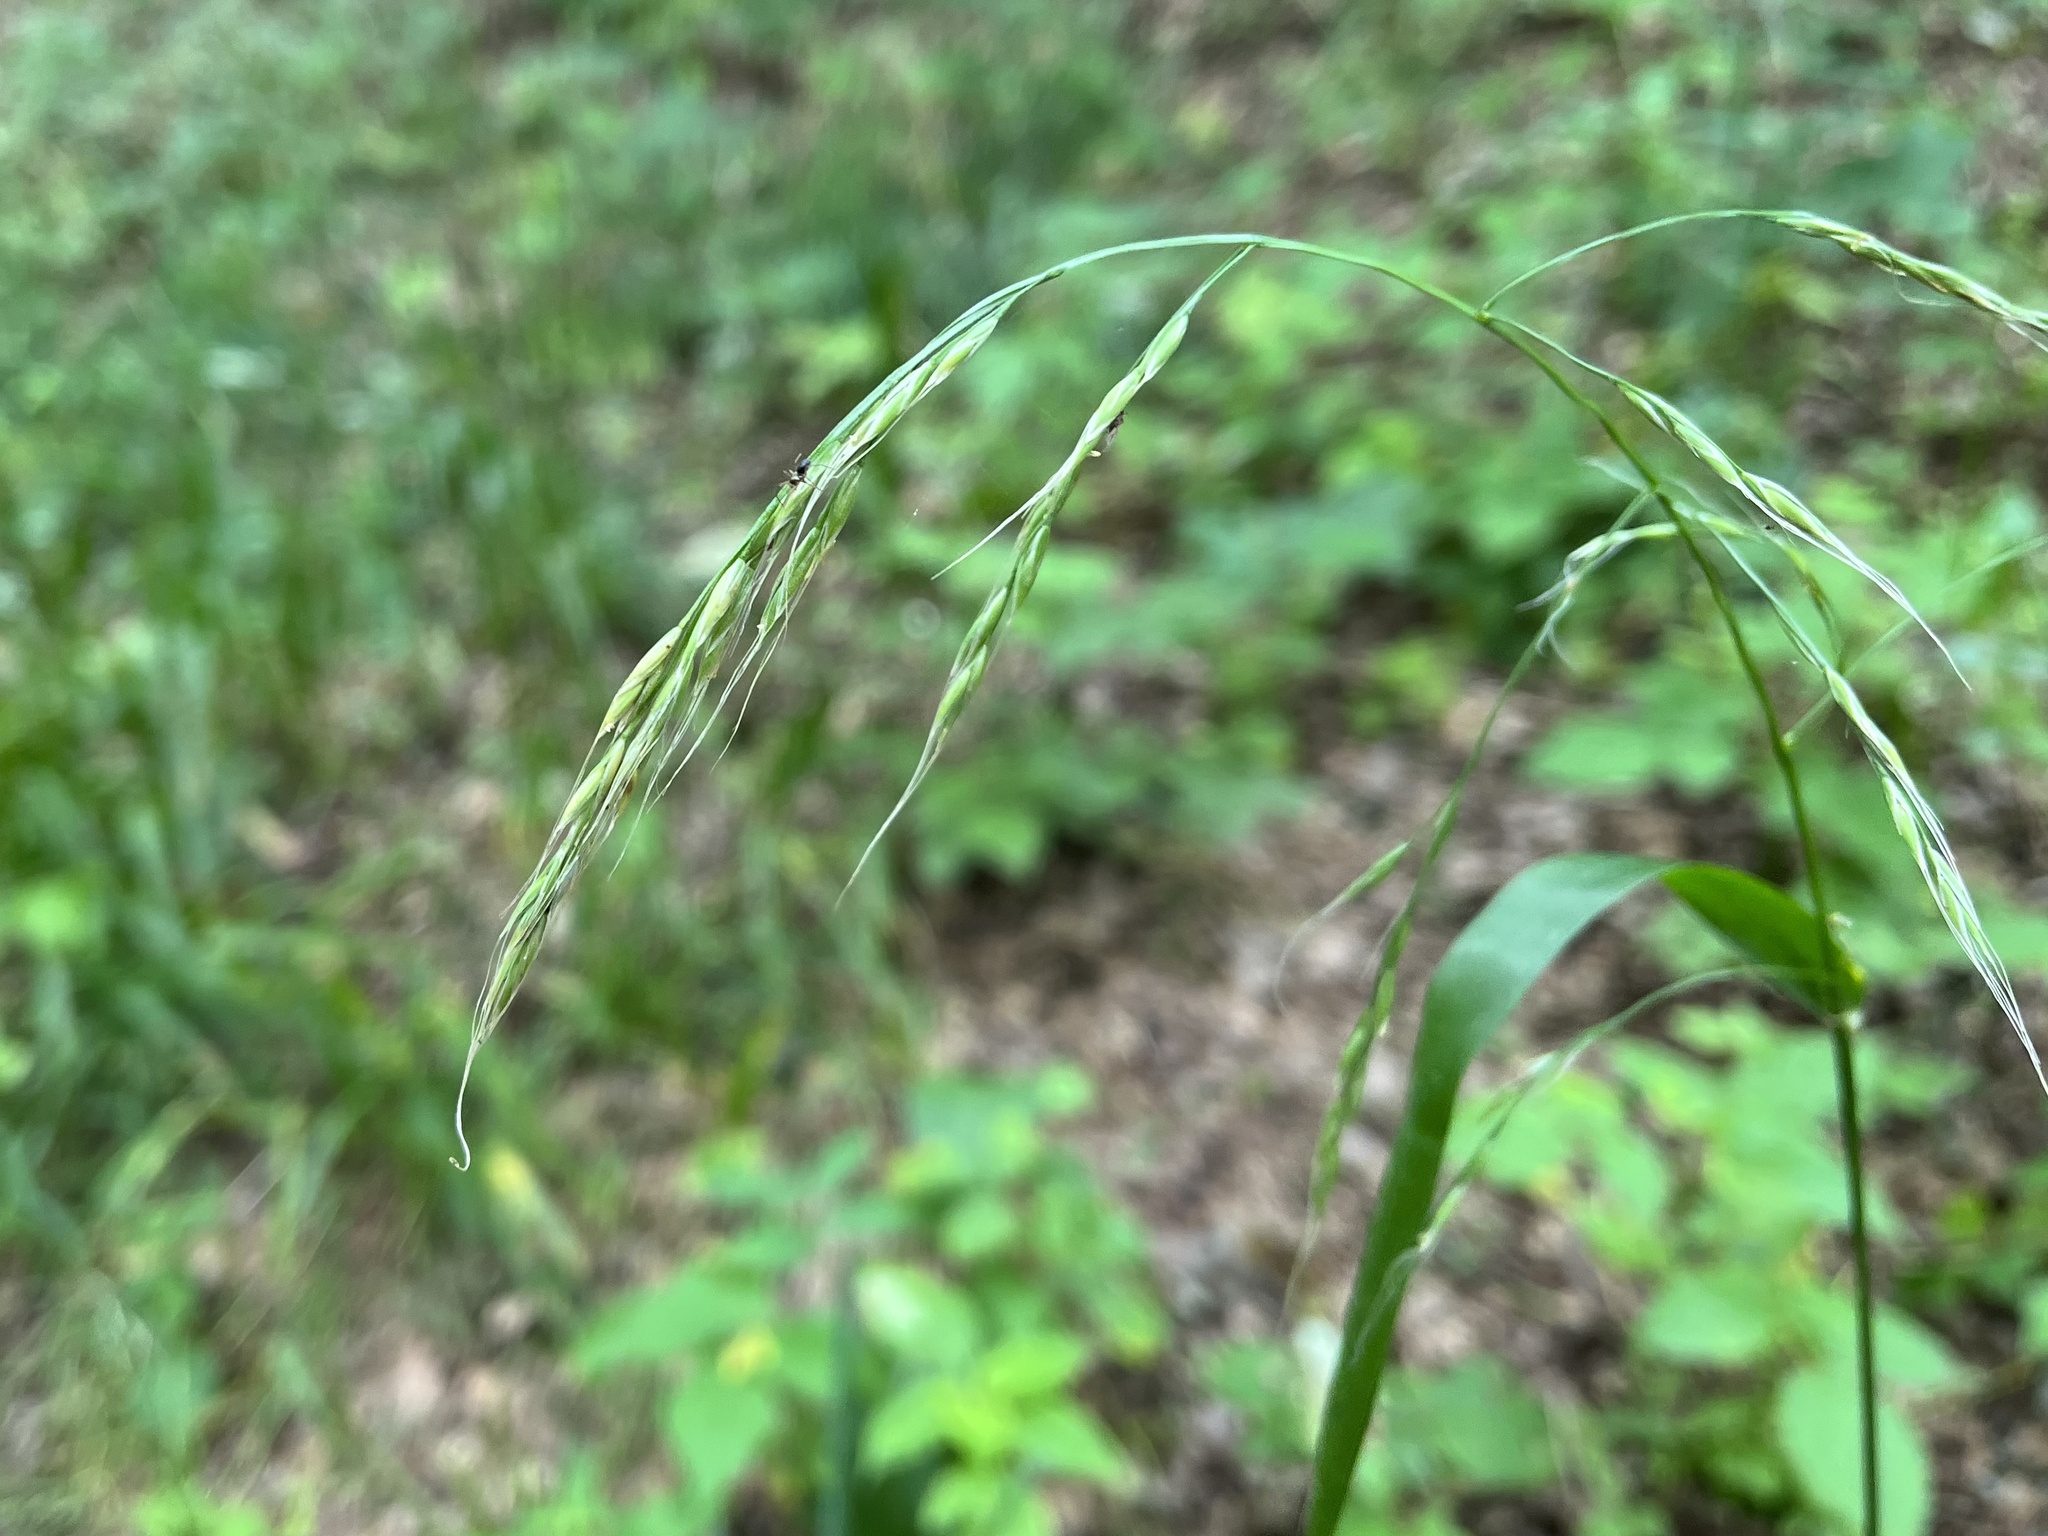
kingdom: Plantae
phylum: Tracheophyta
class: Liliopsida
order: Poales
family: Poaceae
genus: Lolium
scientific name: Lolium giganteum
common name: Giant fescue
